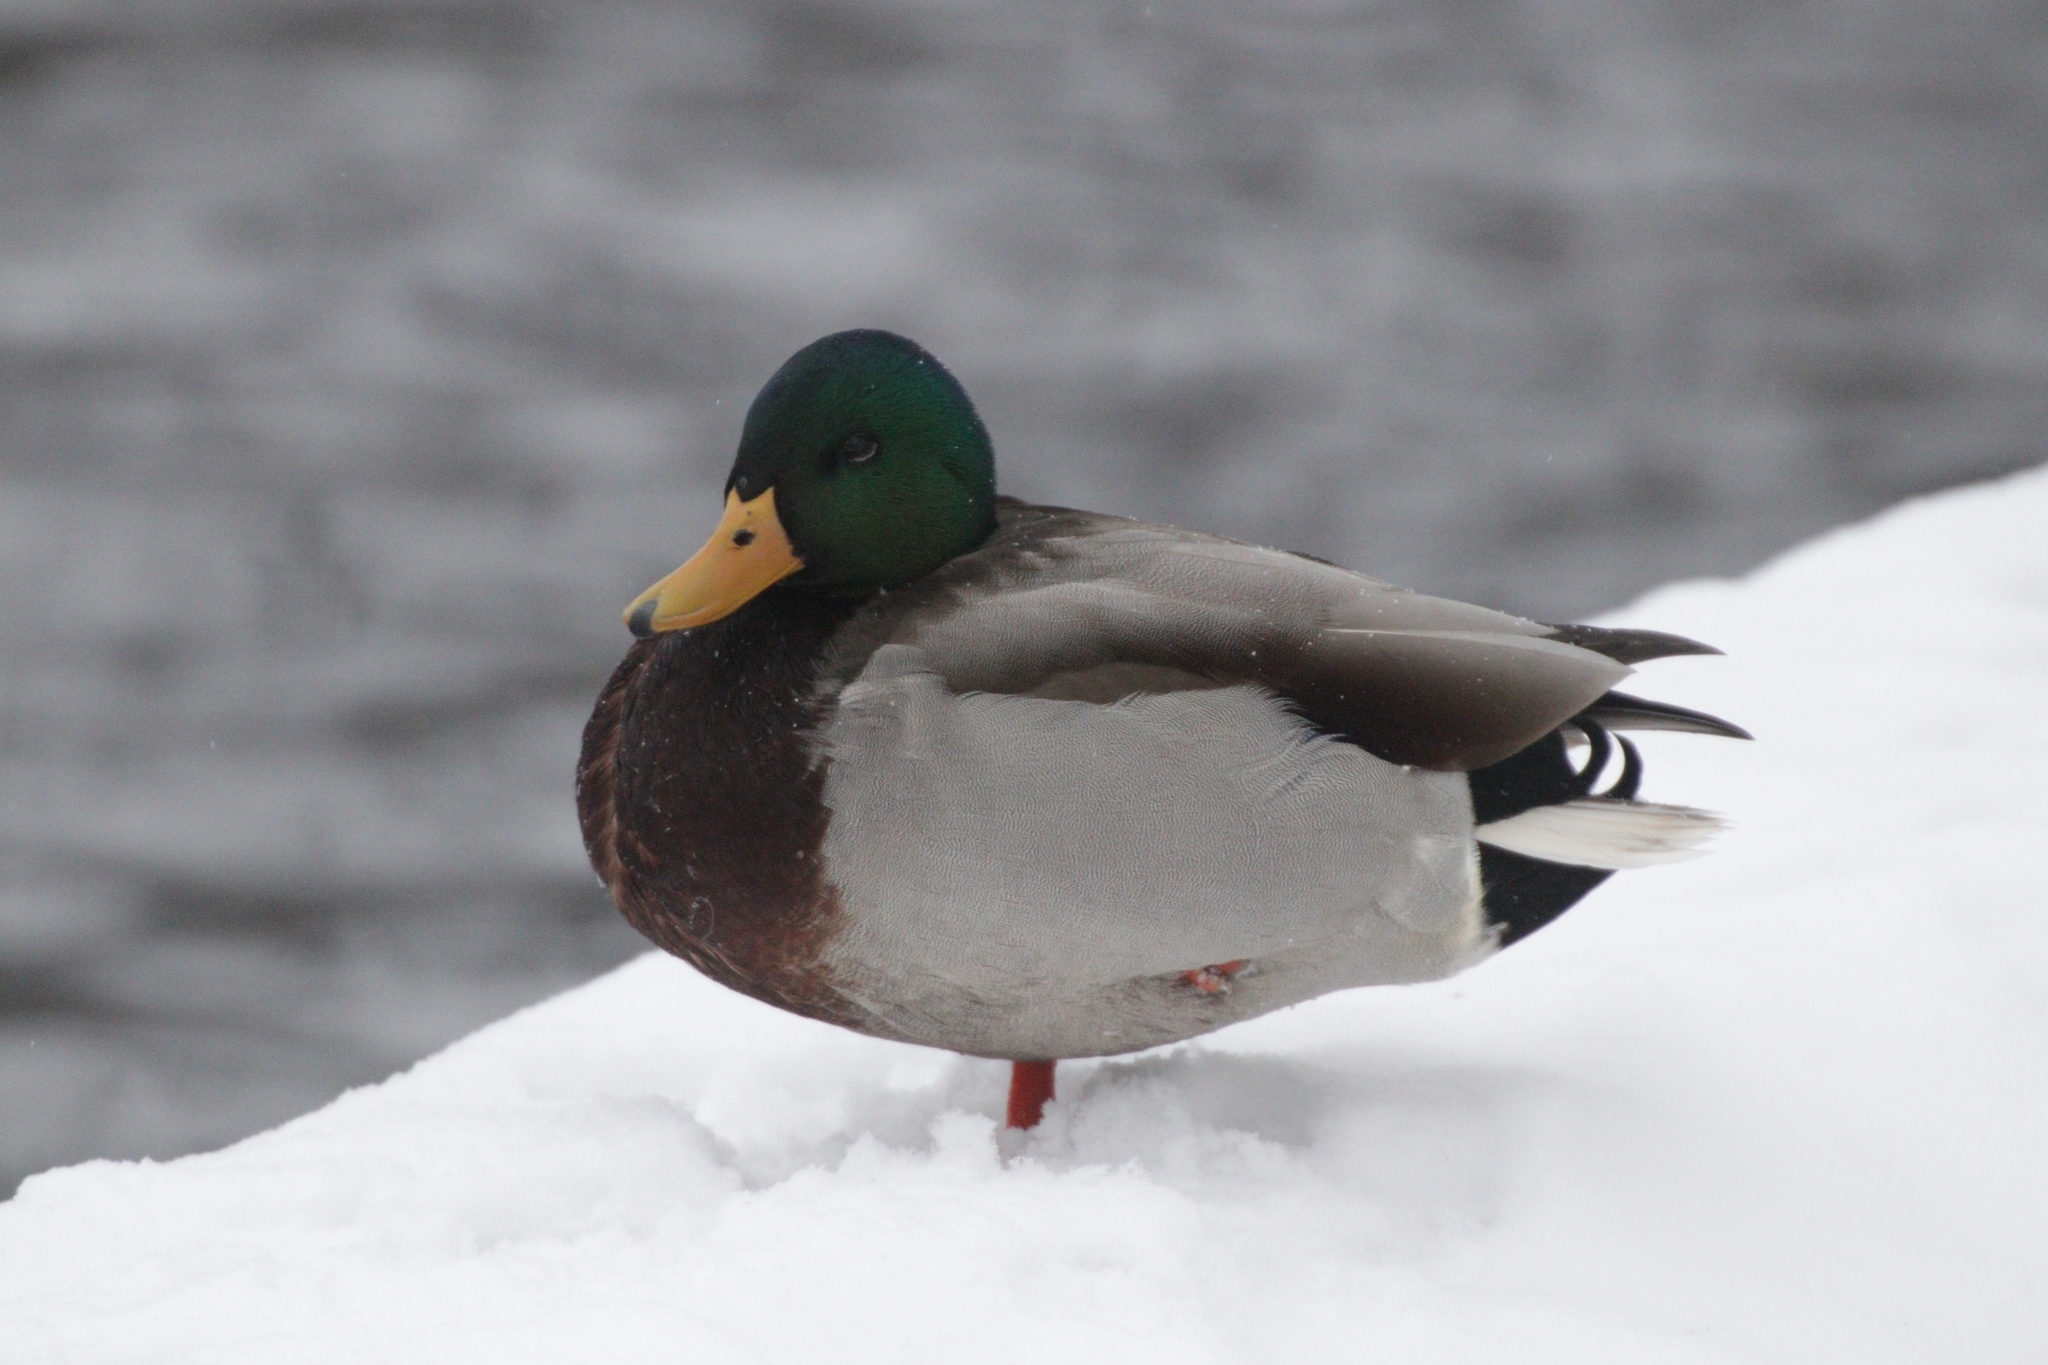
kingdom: Animalia
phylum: Chordata
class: Aves
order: Anseriformes
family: Anatidae
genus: Anas
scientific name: Anas platyrhynchos
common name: Mallard
